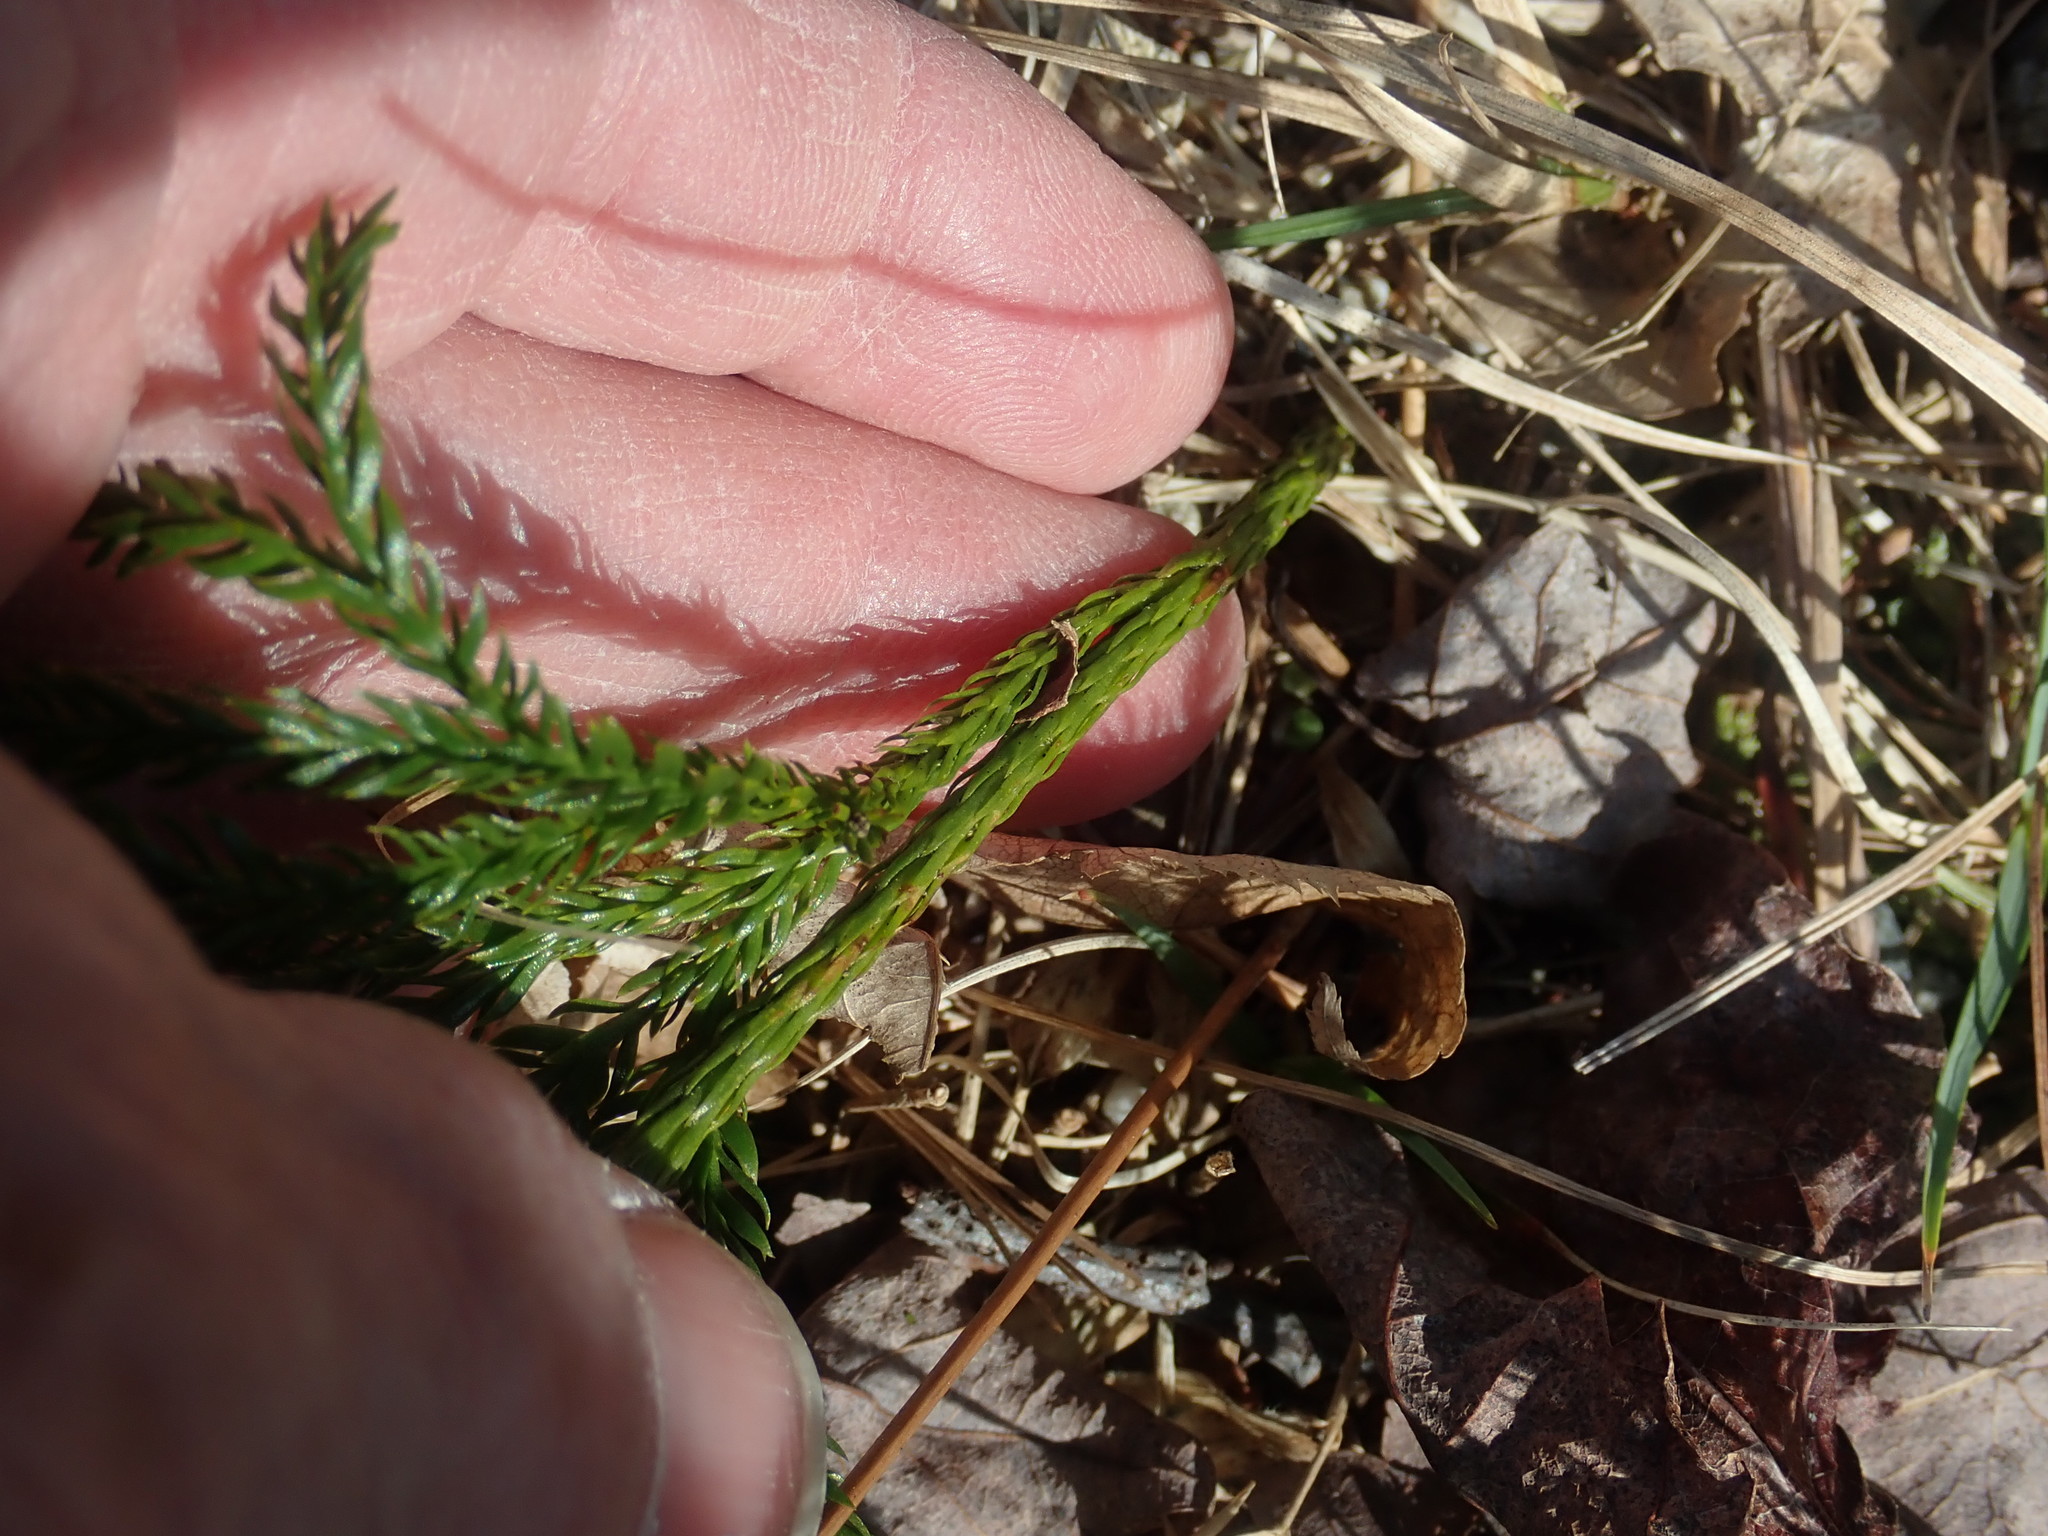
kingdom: Plantae
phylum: Tracheophyta
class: Lycopodiopsida
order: Lycopodiales
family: Lycopodiaceae
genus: Dendrolycopodium
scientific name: Dendrolycopodium obscurum
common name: Common ground-pine
